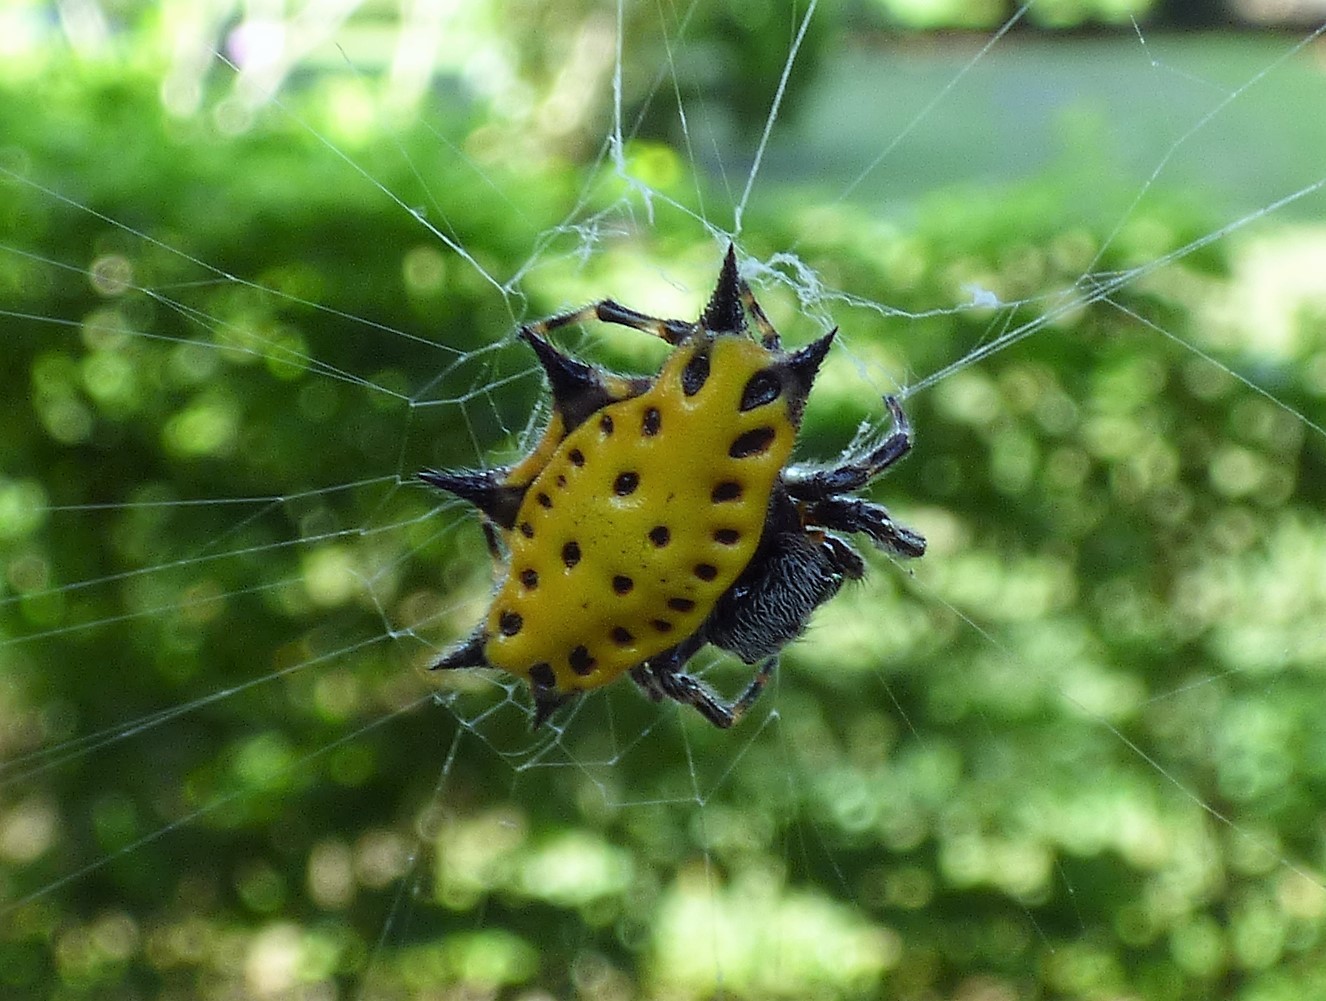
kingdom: Animalia
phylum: Arthropoda
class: Arachnida
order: Araneae
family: Araneidae
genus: Gasteracantha
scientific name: Gasteracantha cancriformis
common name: Orb weavers
